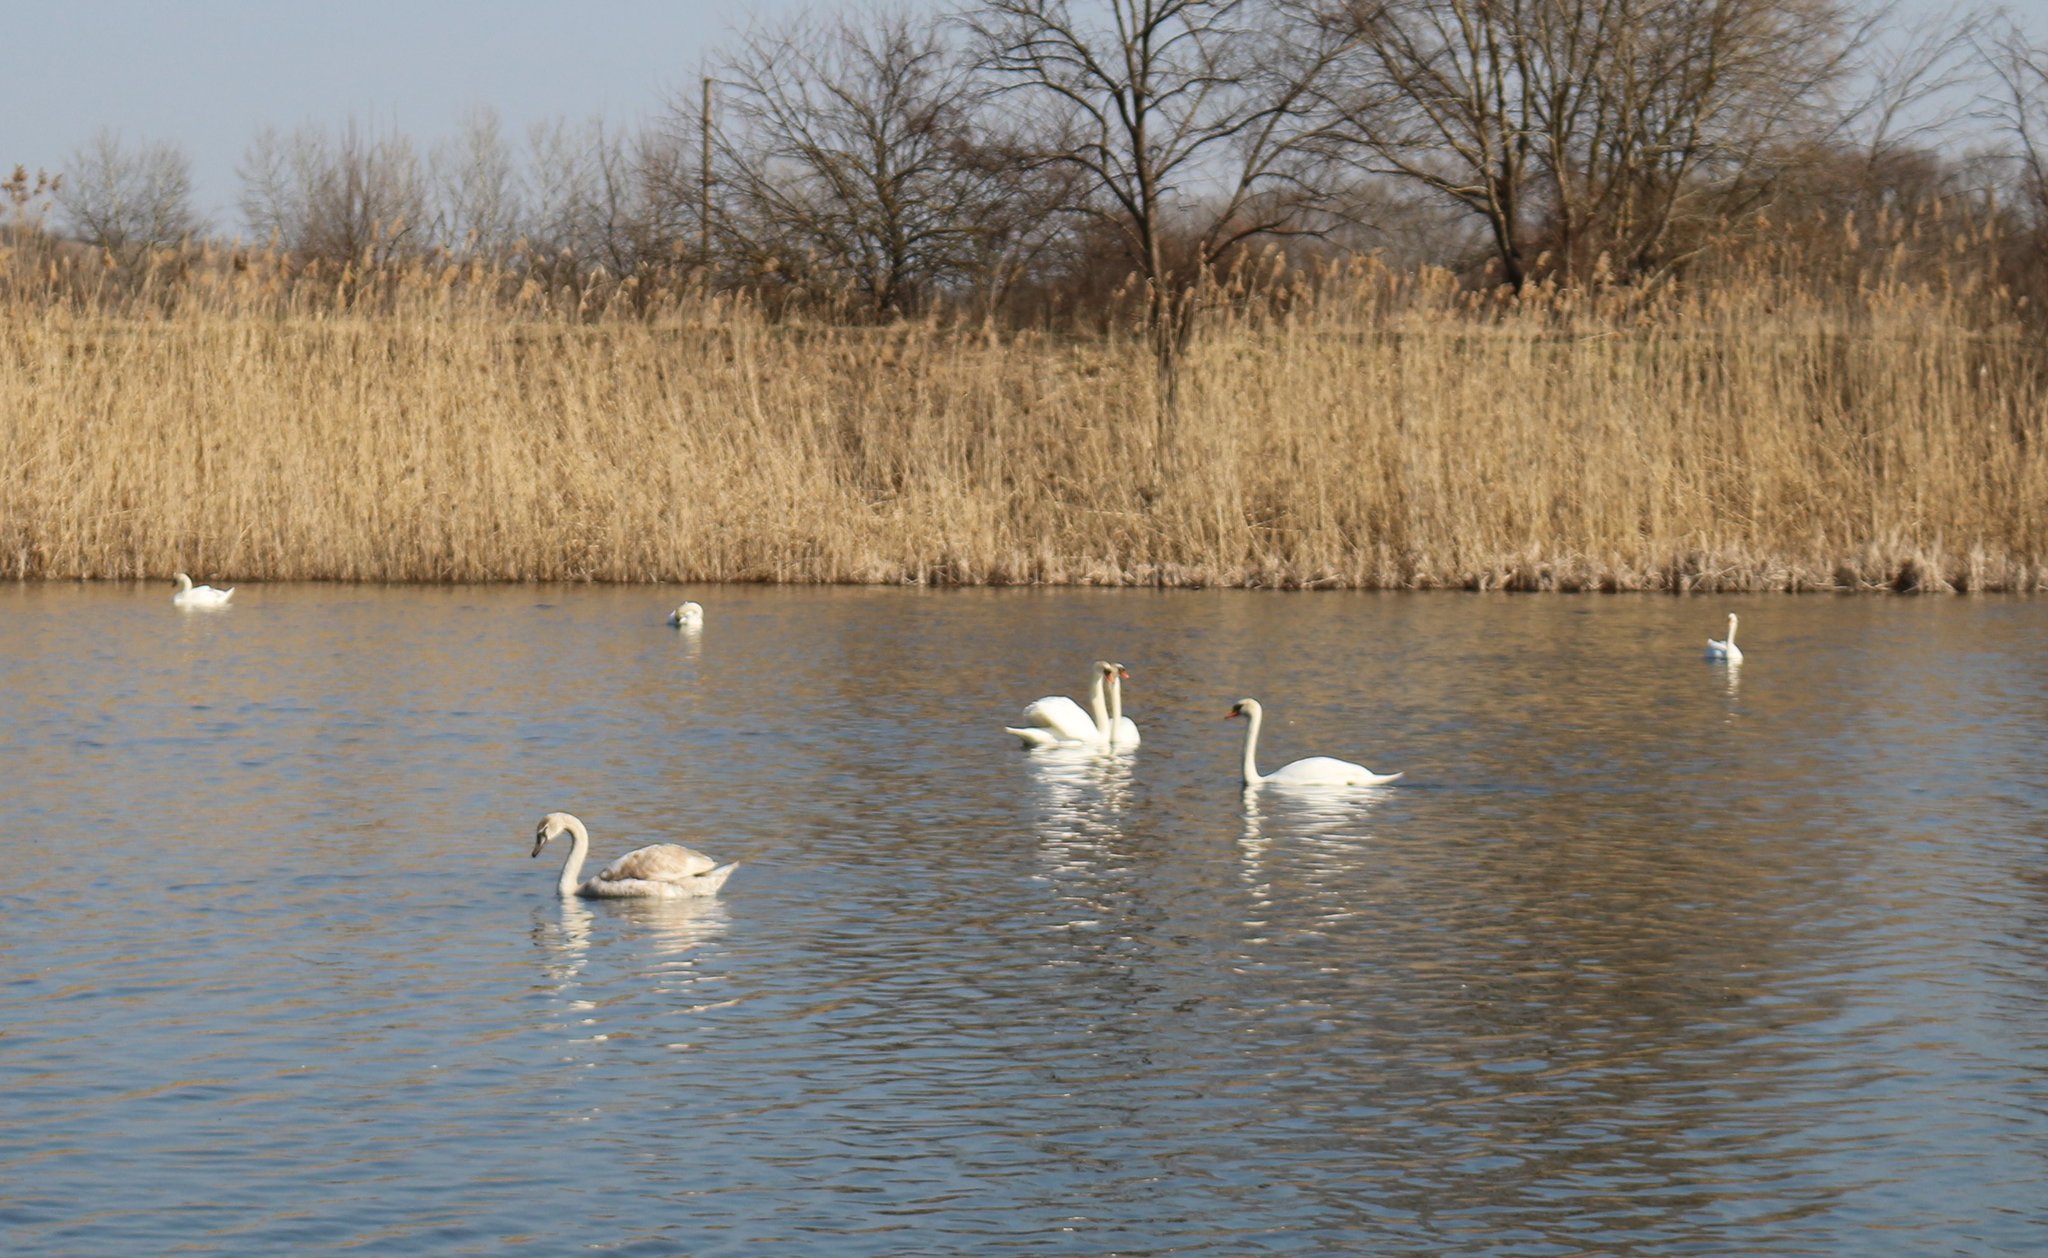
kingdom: Animalia
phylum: Chordata
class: Aves
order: Anseriformes
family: Anatidae
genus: Cygnus
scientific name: Cygnus olor
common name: Mute swan
